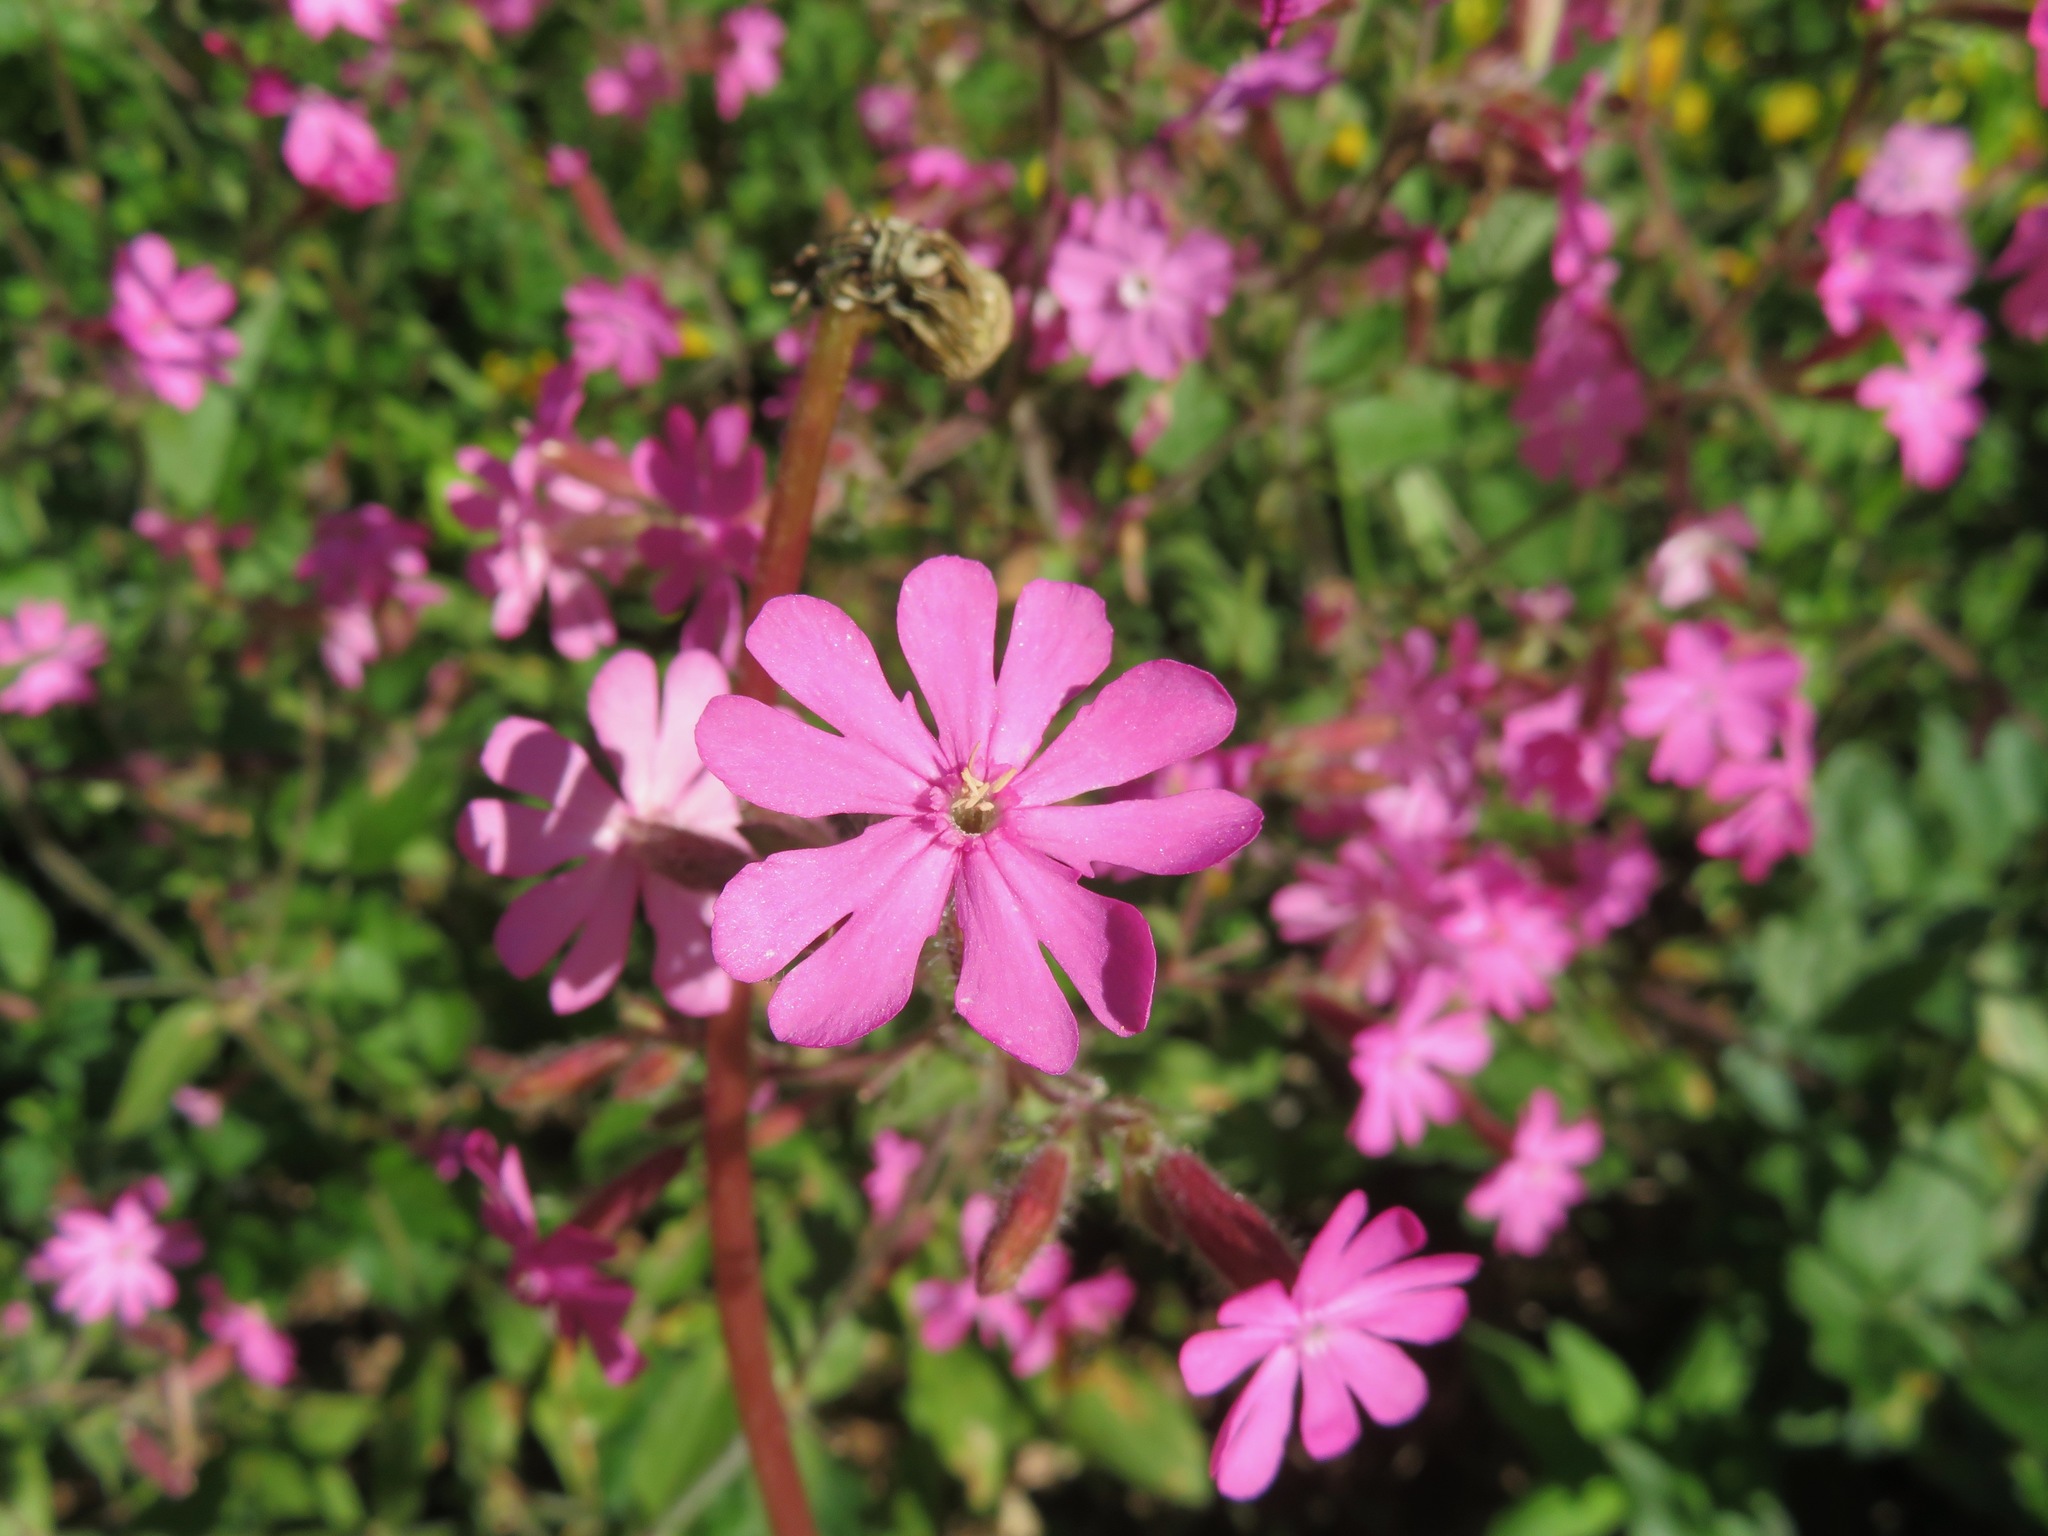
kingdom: Plantae
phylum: Tracheophyta
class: Magnoliopsida
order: Caryophyllales
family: Caryophyllaceae
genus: Silene
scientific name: Silene dioica
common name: Red campion
